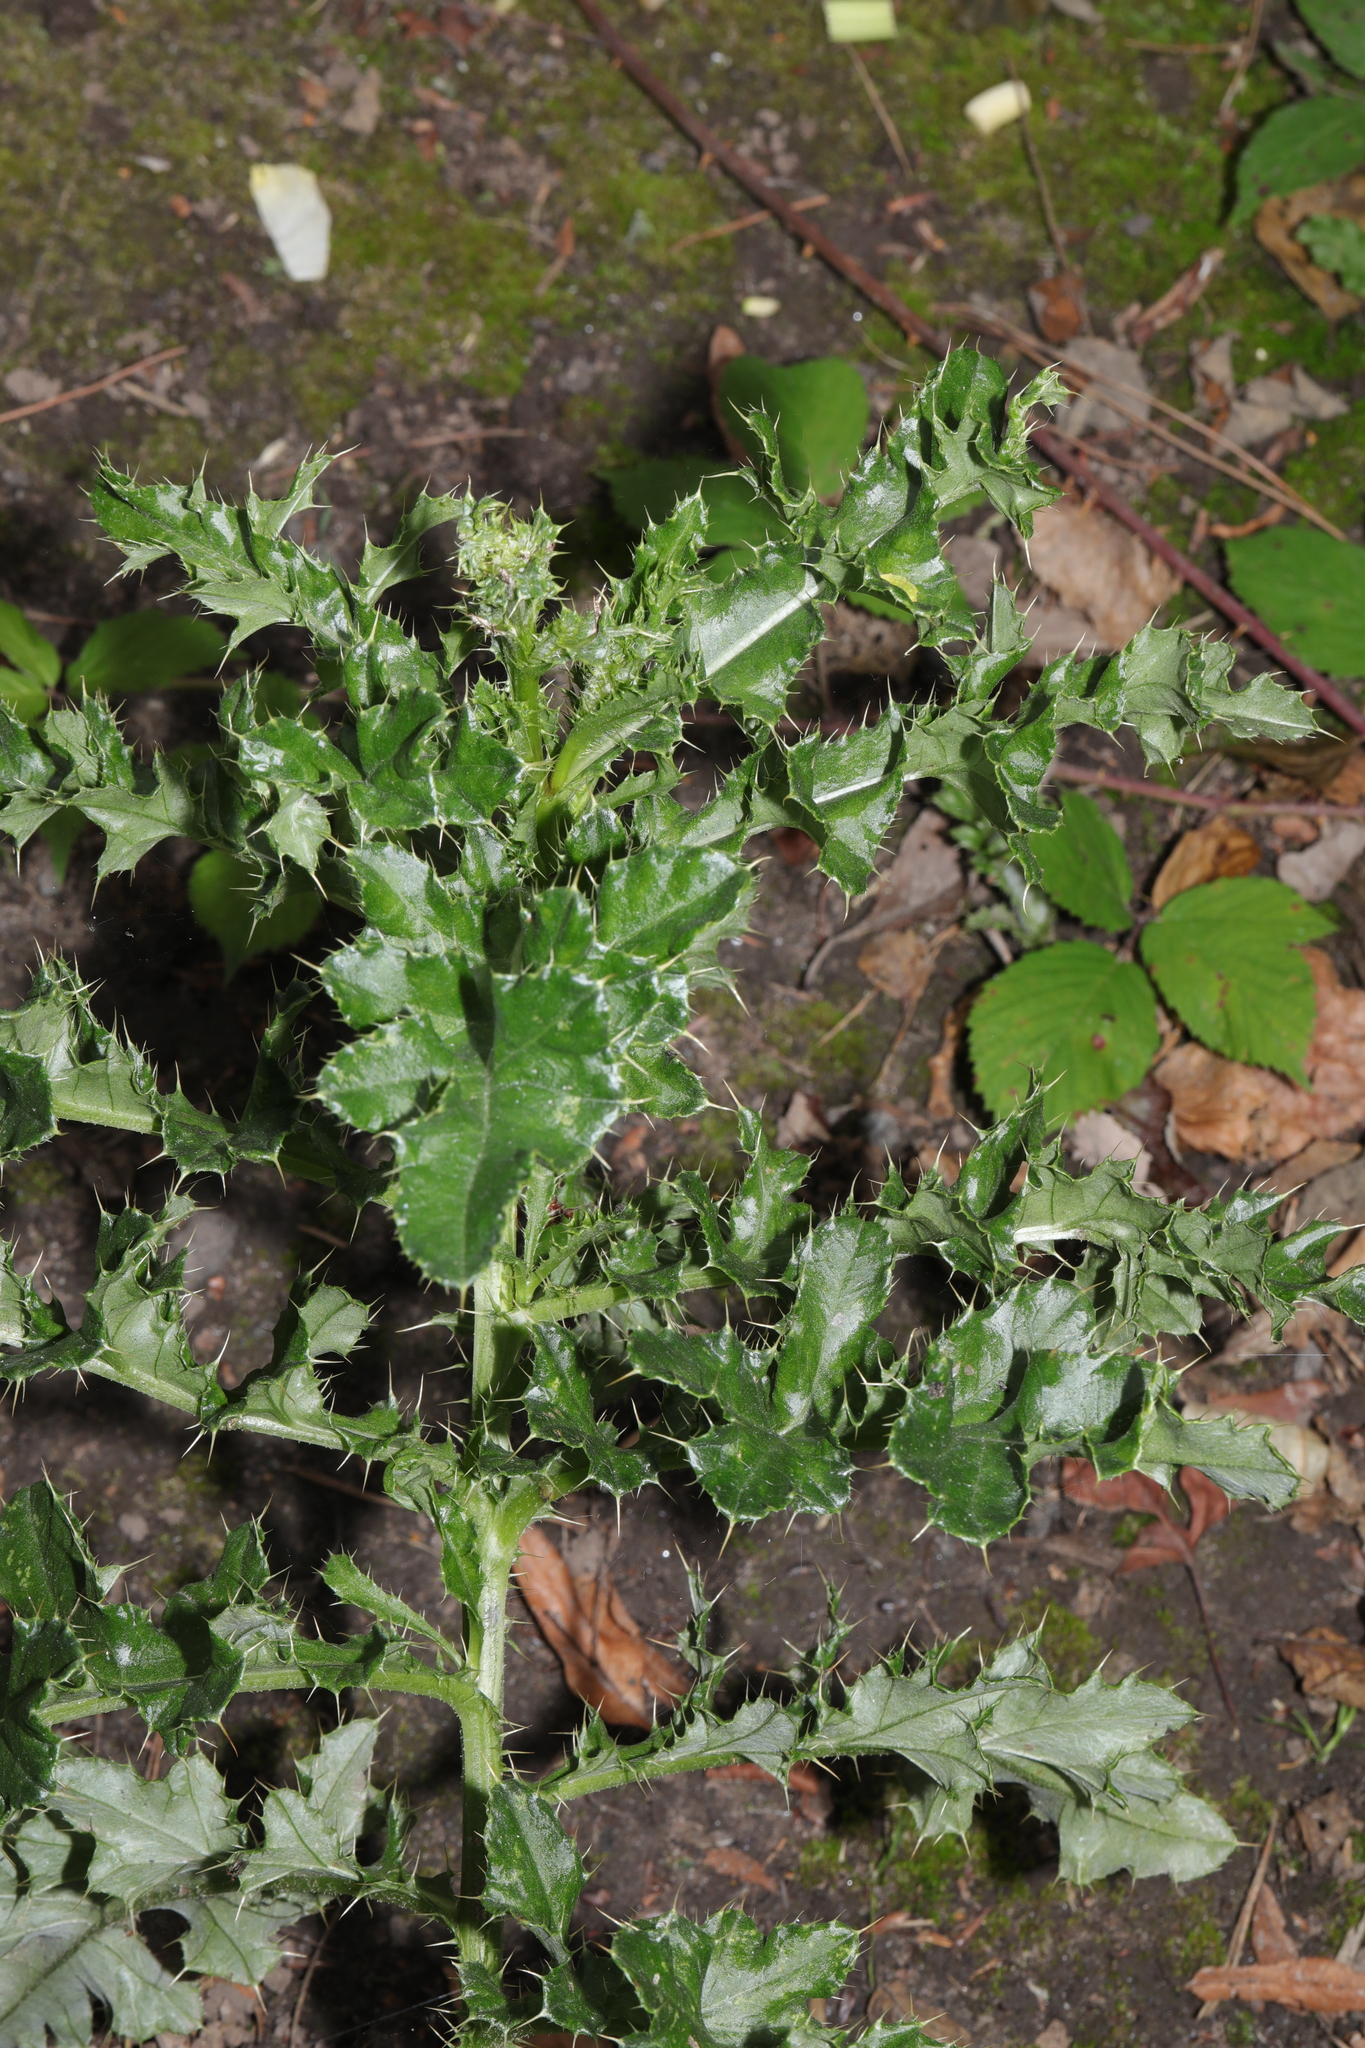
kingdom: Plantae
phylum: Tracheophyta
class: Magnoliopsida
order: Asterales
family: Asteraceae
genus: Cirsium
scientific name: Cirsium arvense
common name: Creeping thistle
